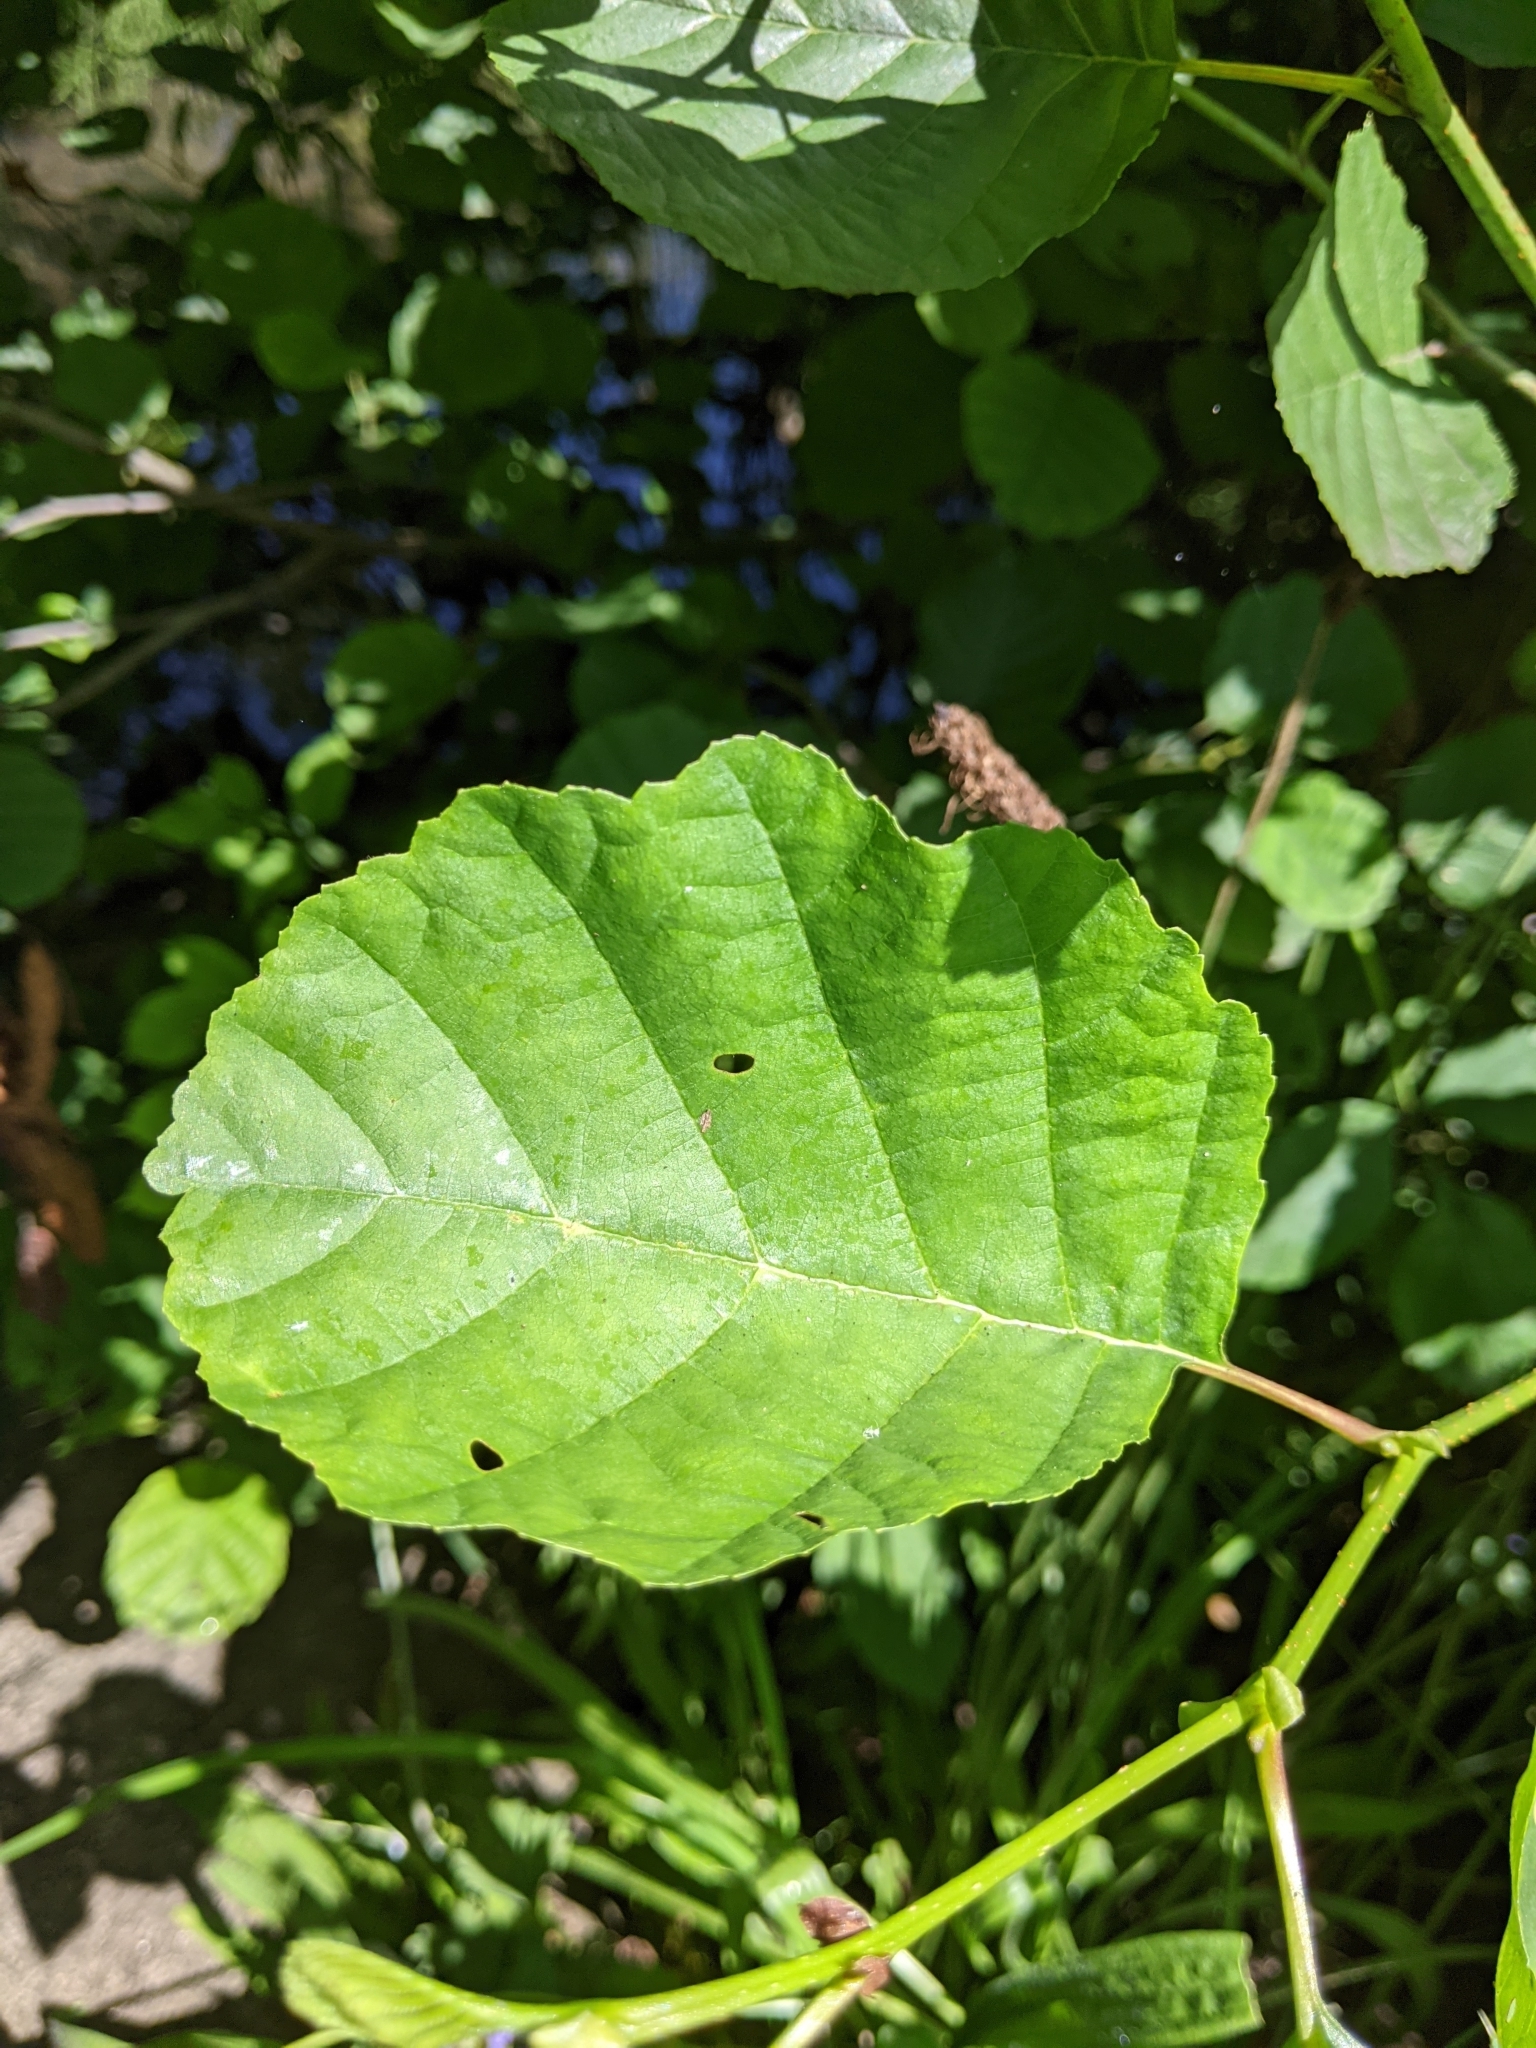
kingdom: Plantae
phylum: Tracheophyta
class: Magnoliopsida
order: Fagales
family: Betulaceae
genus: Alnus
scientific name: Alnus glutinosa
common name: Black alder
